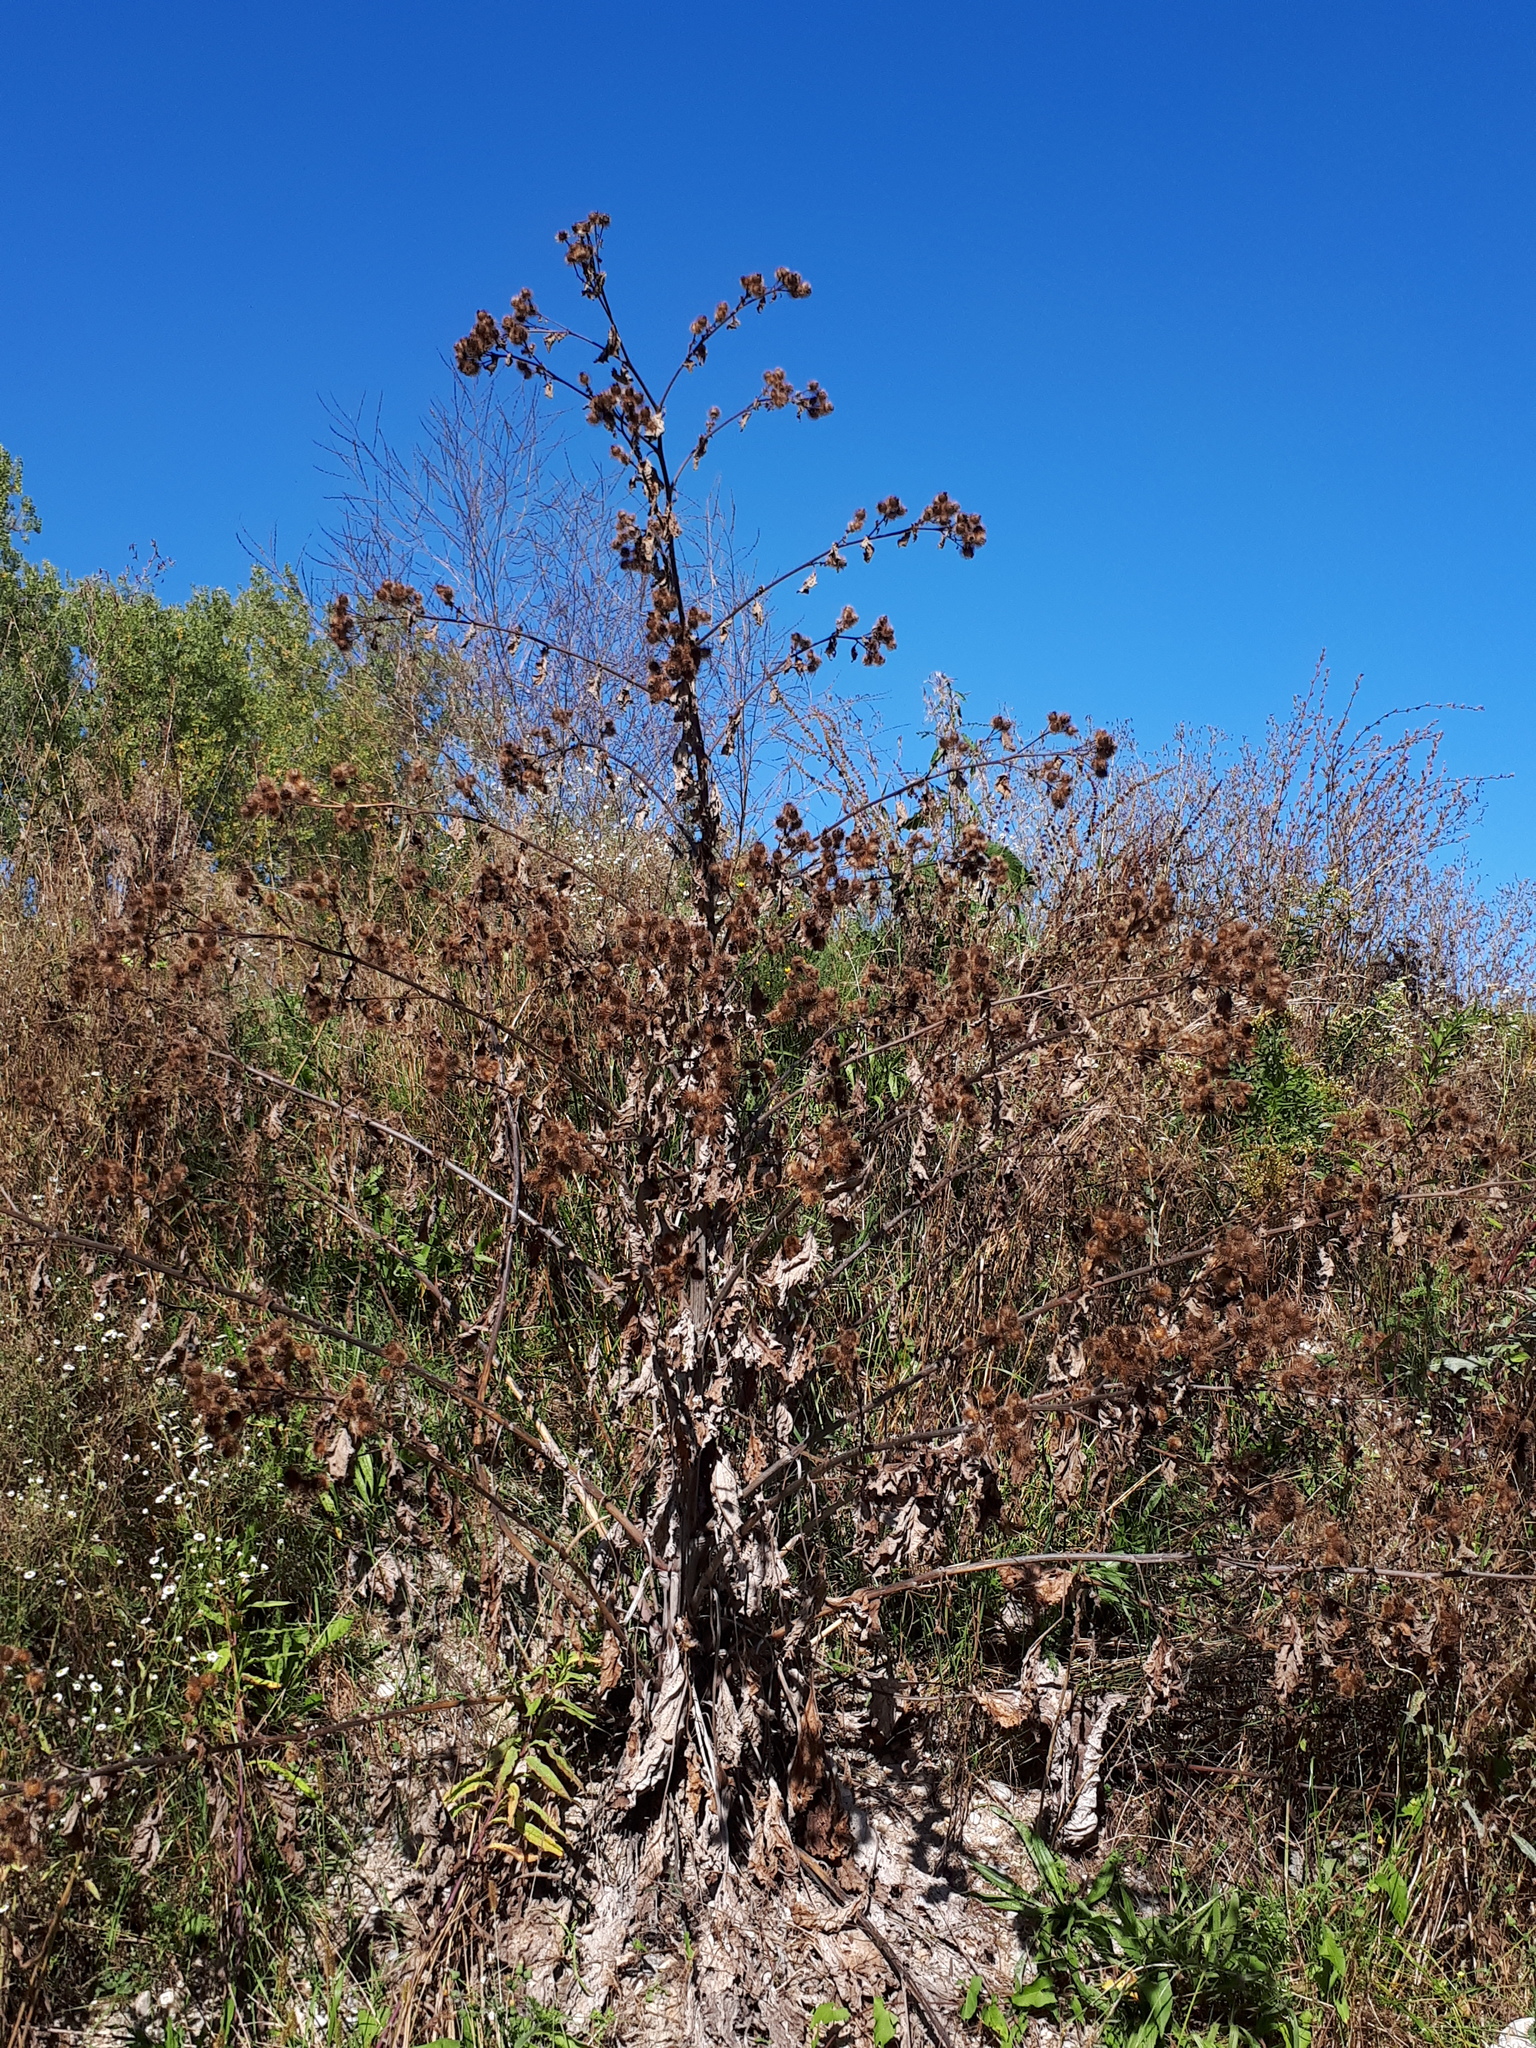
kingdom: Plantae
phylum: Tracheophyta
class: Magnoliopsida
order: Asterales
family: Asteraceae
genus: Arctium
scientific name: Arctium lappa
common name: Greater burdock
